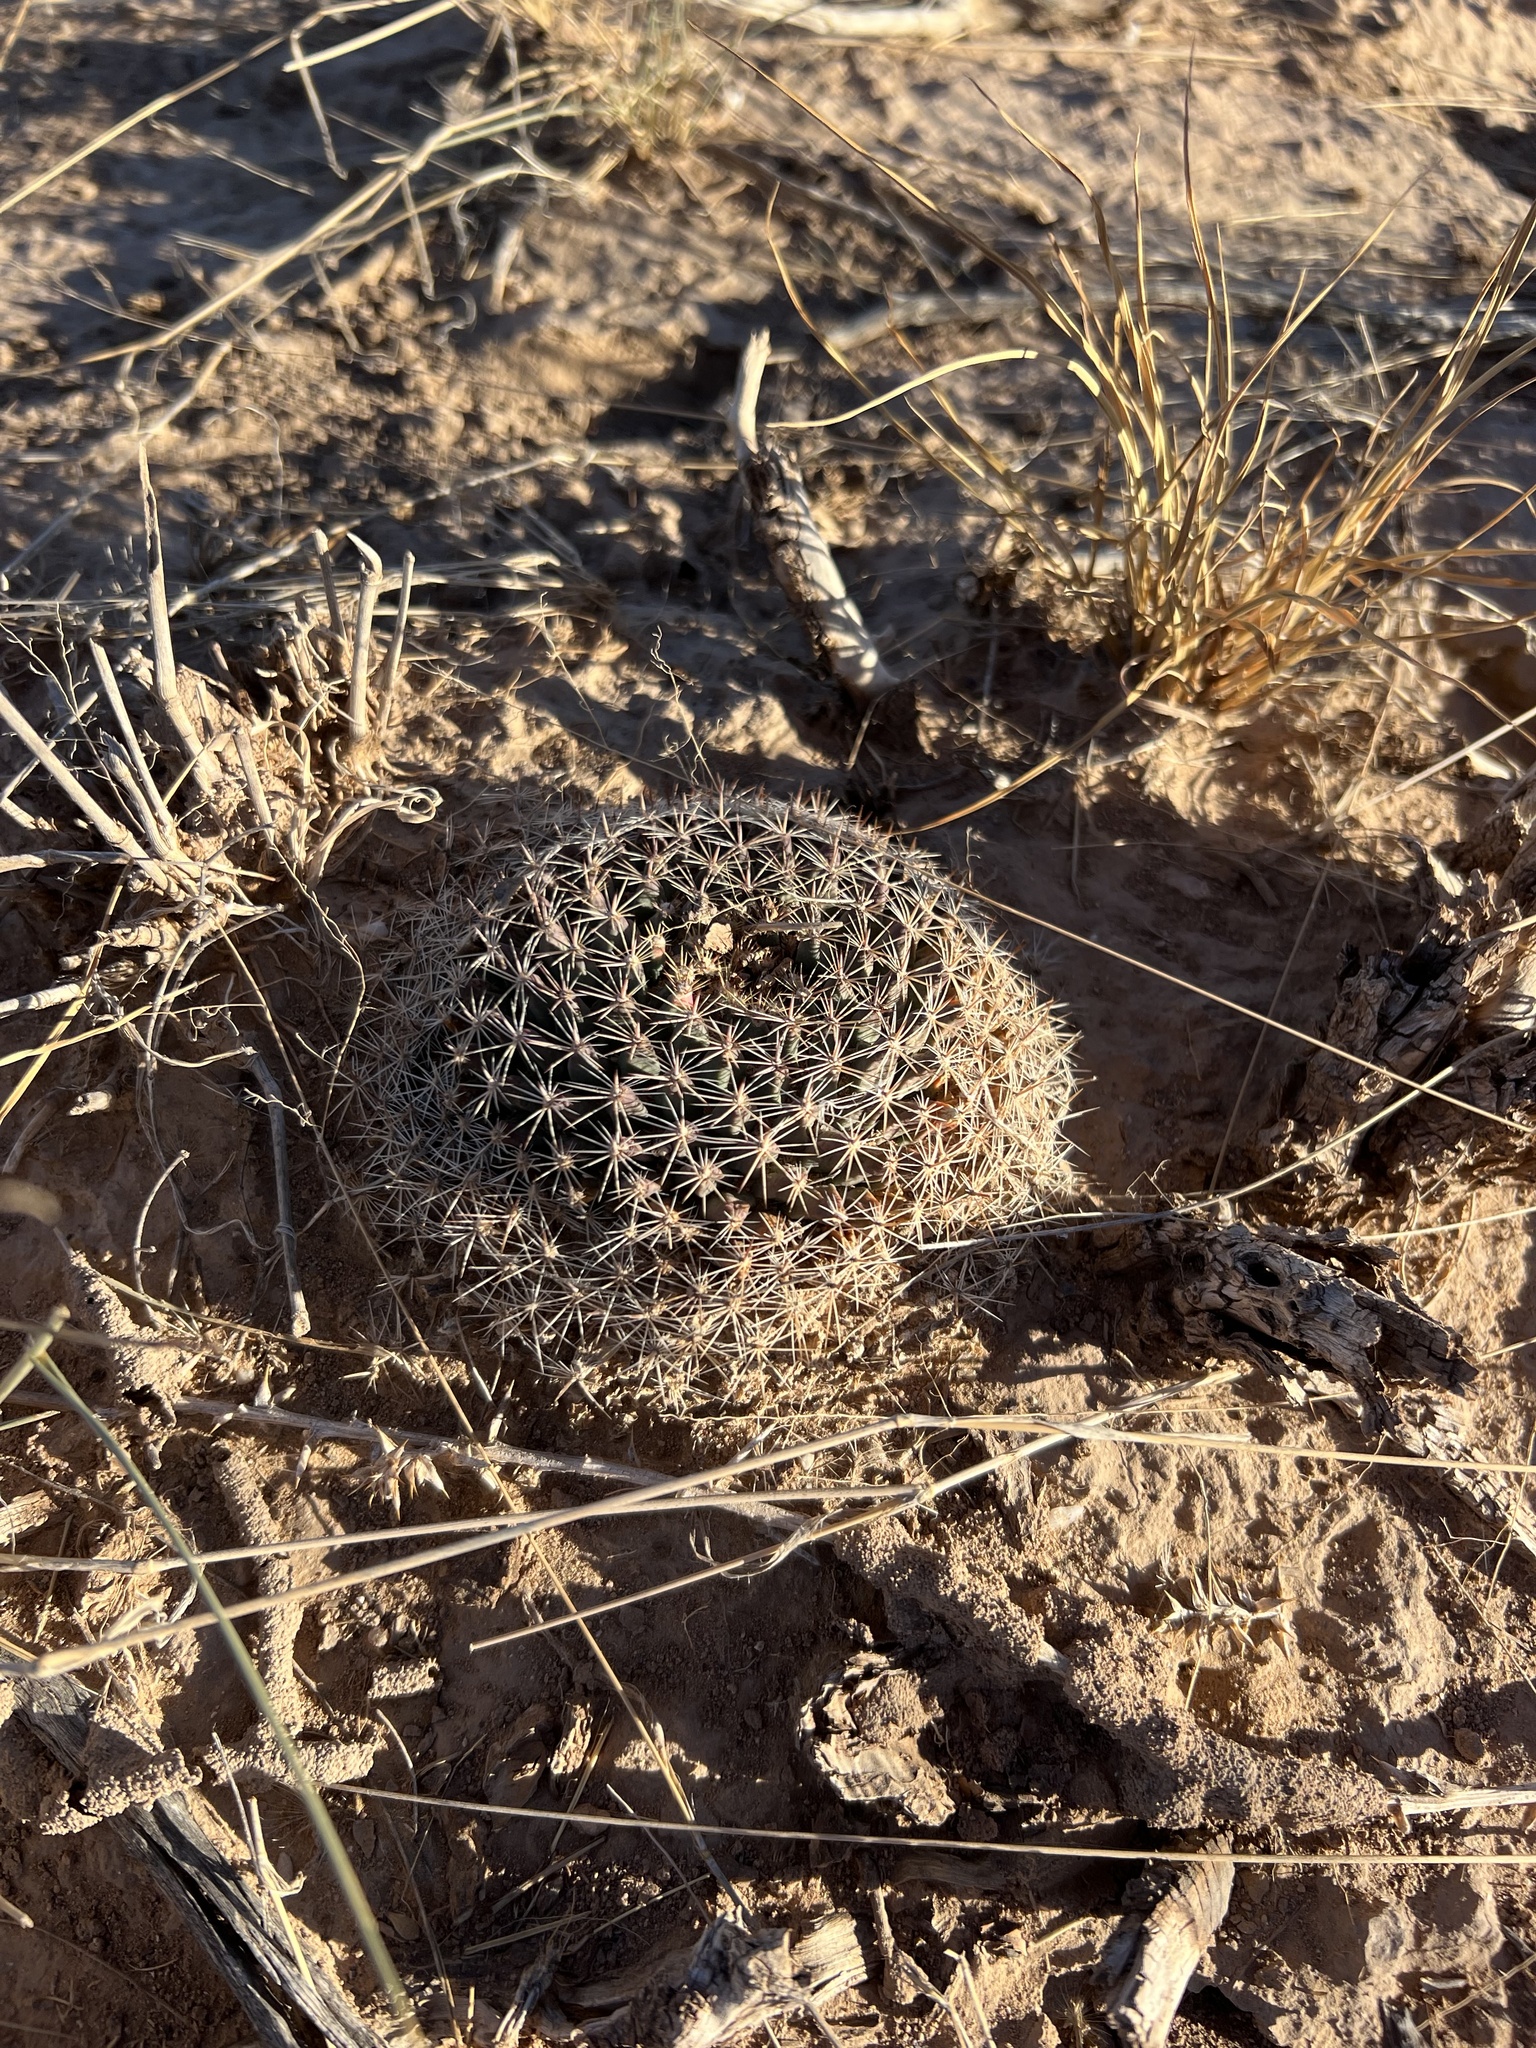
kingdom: Plantae
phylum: Tracheophyta
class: Magnoliopsida
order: Caryophyllales
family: Cactaceae
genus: Mammillaria
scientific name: Mammillaria heyderi
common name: Little nipple cactus
